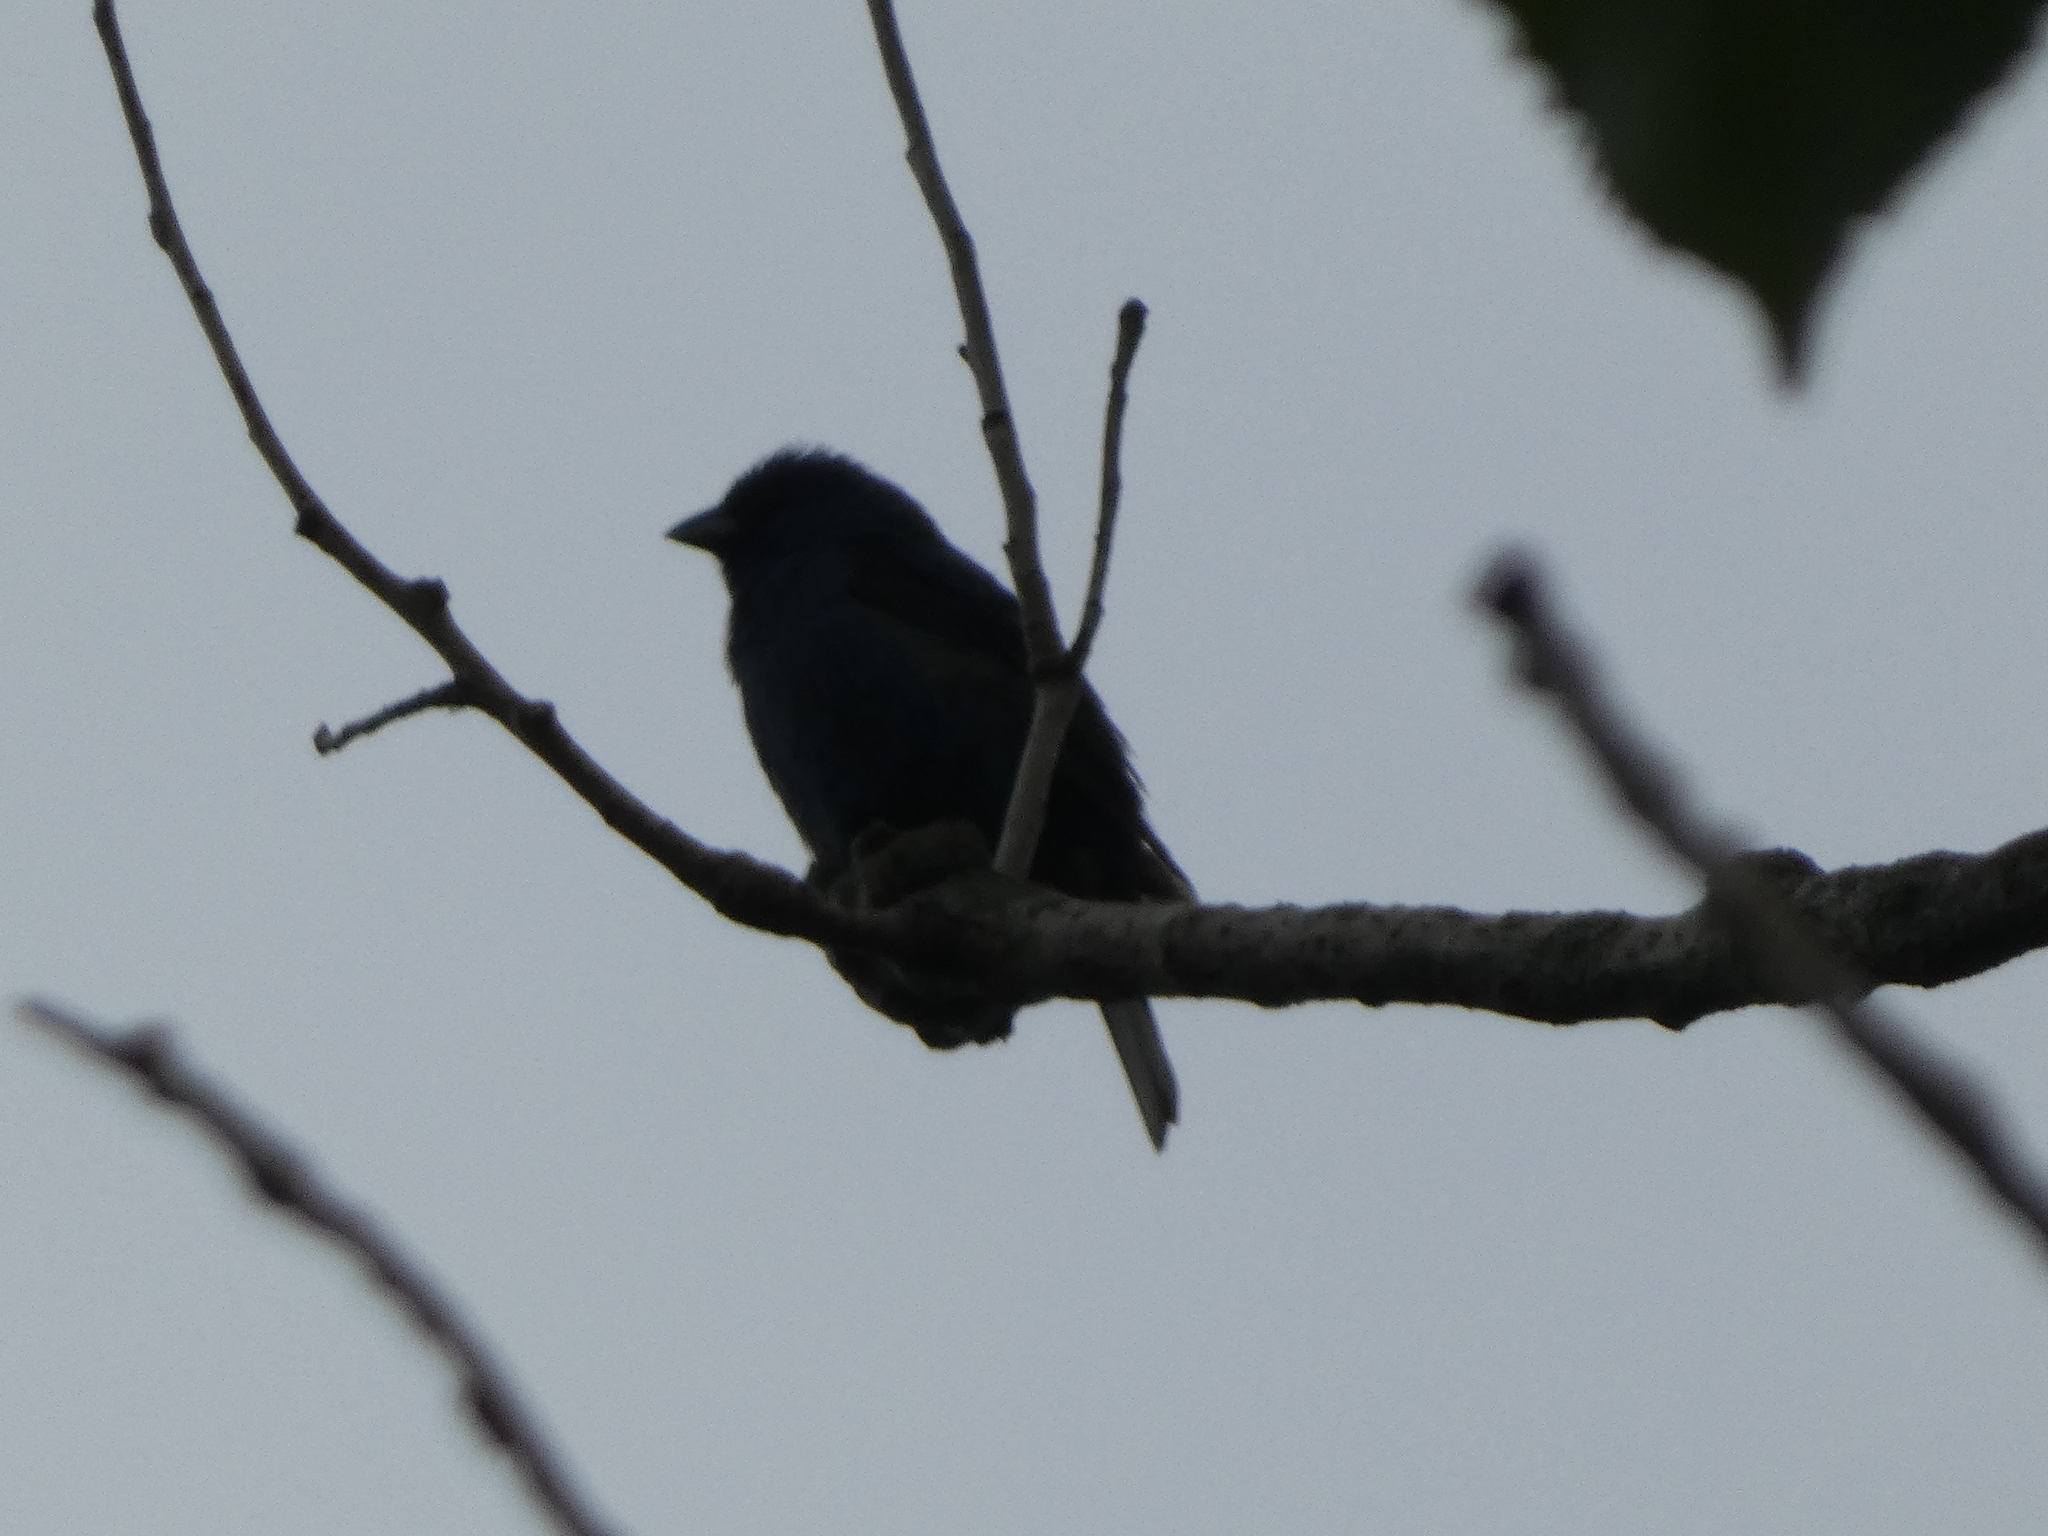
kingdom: Animalia
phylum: Chordata
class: Aves
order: Passeriformes
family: Cardinalidae
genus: Passerina
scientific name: Passerina cyanea
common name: Indigo bunting
